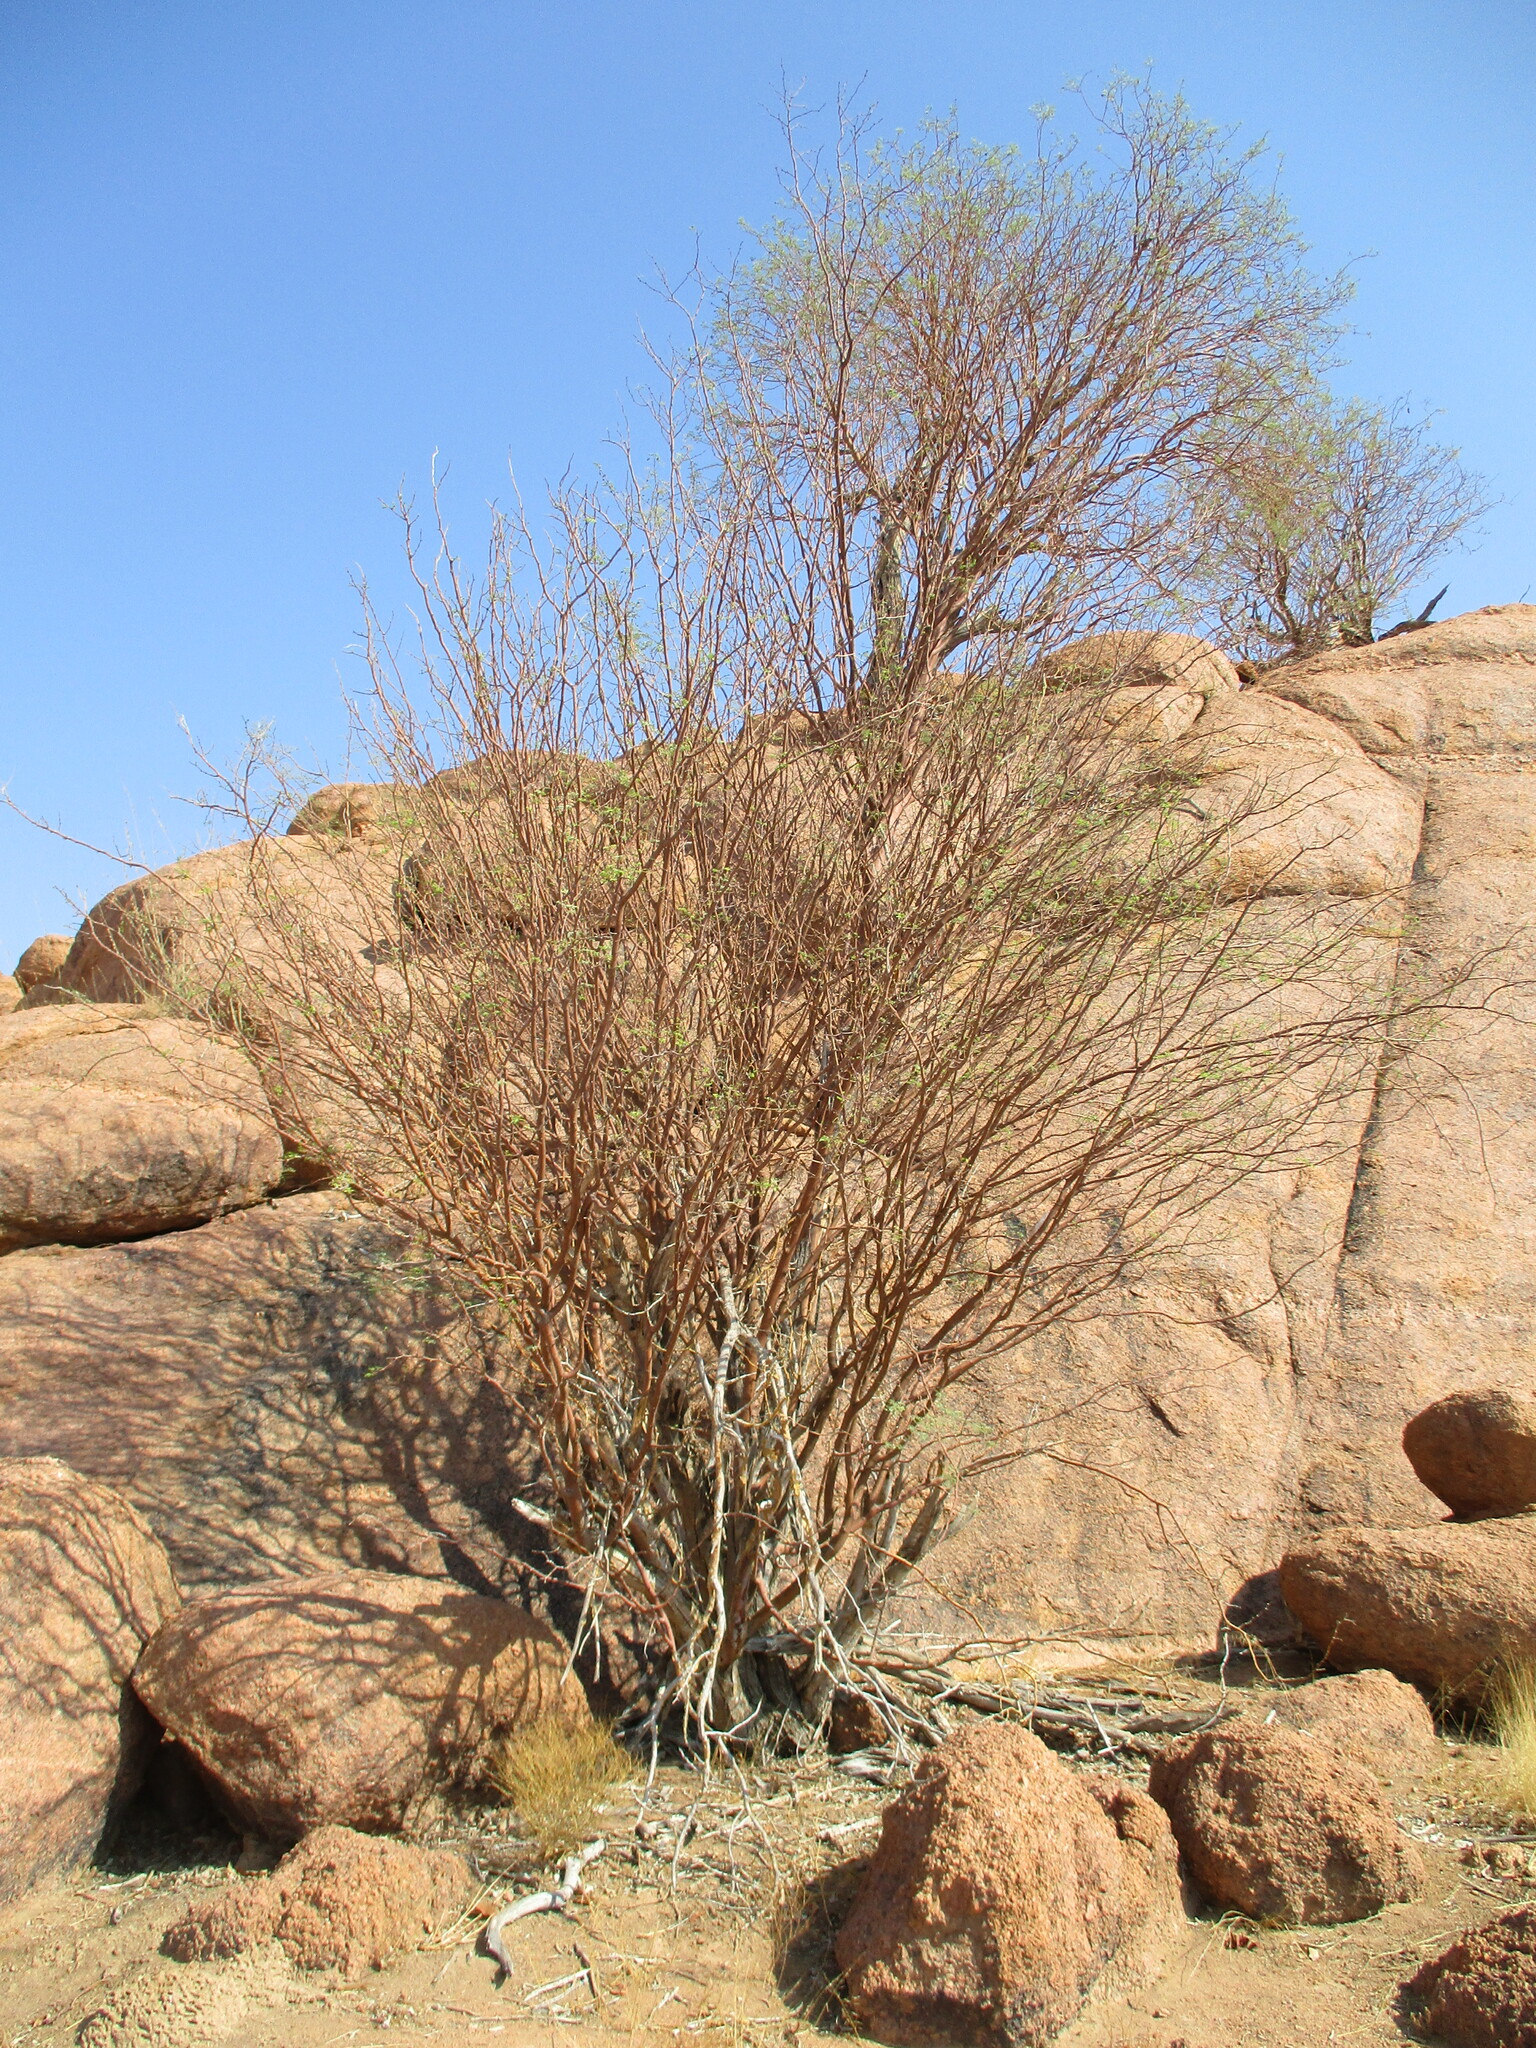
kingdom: Plantae
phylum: Tracheophyta
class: Magnoliopsida
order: Fabales
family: Fabaceae
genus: Senegalia
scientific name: Senegalia montis-usti
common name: Brandberg acacia
